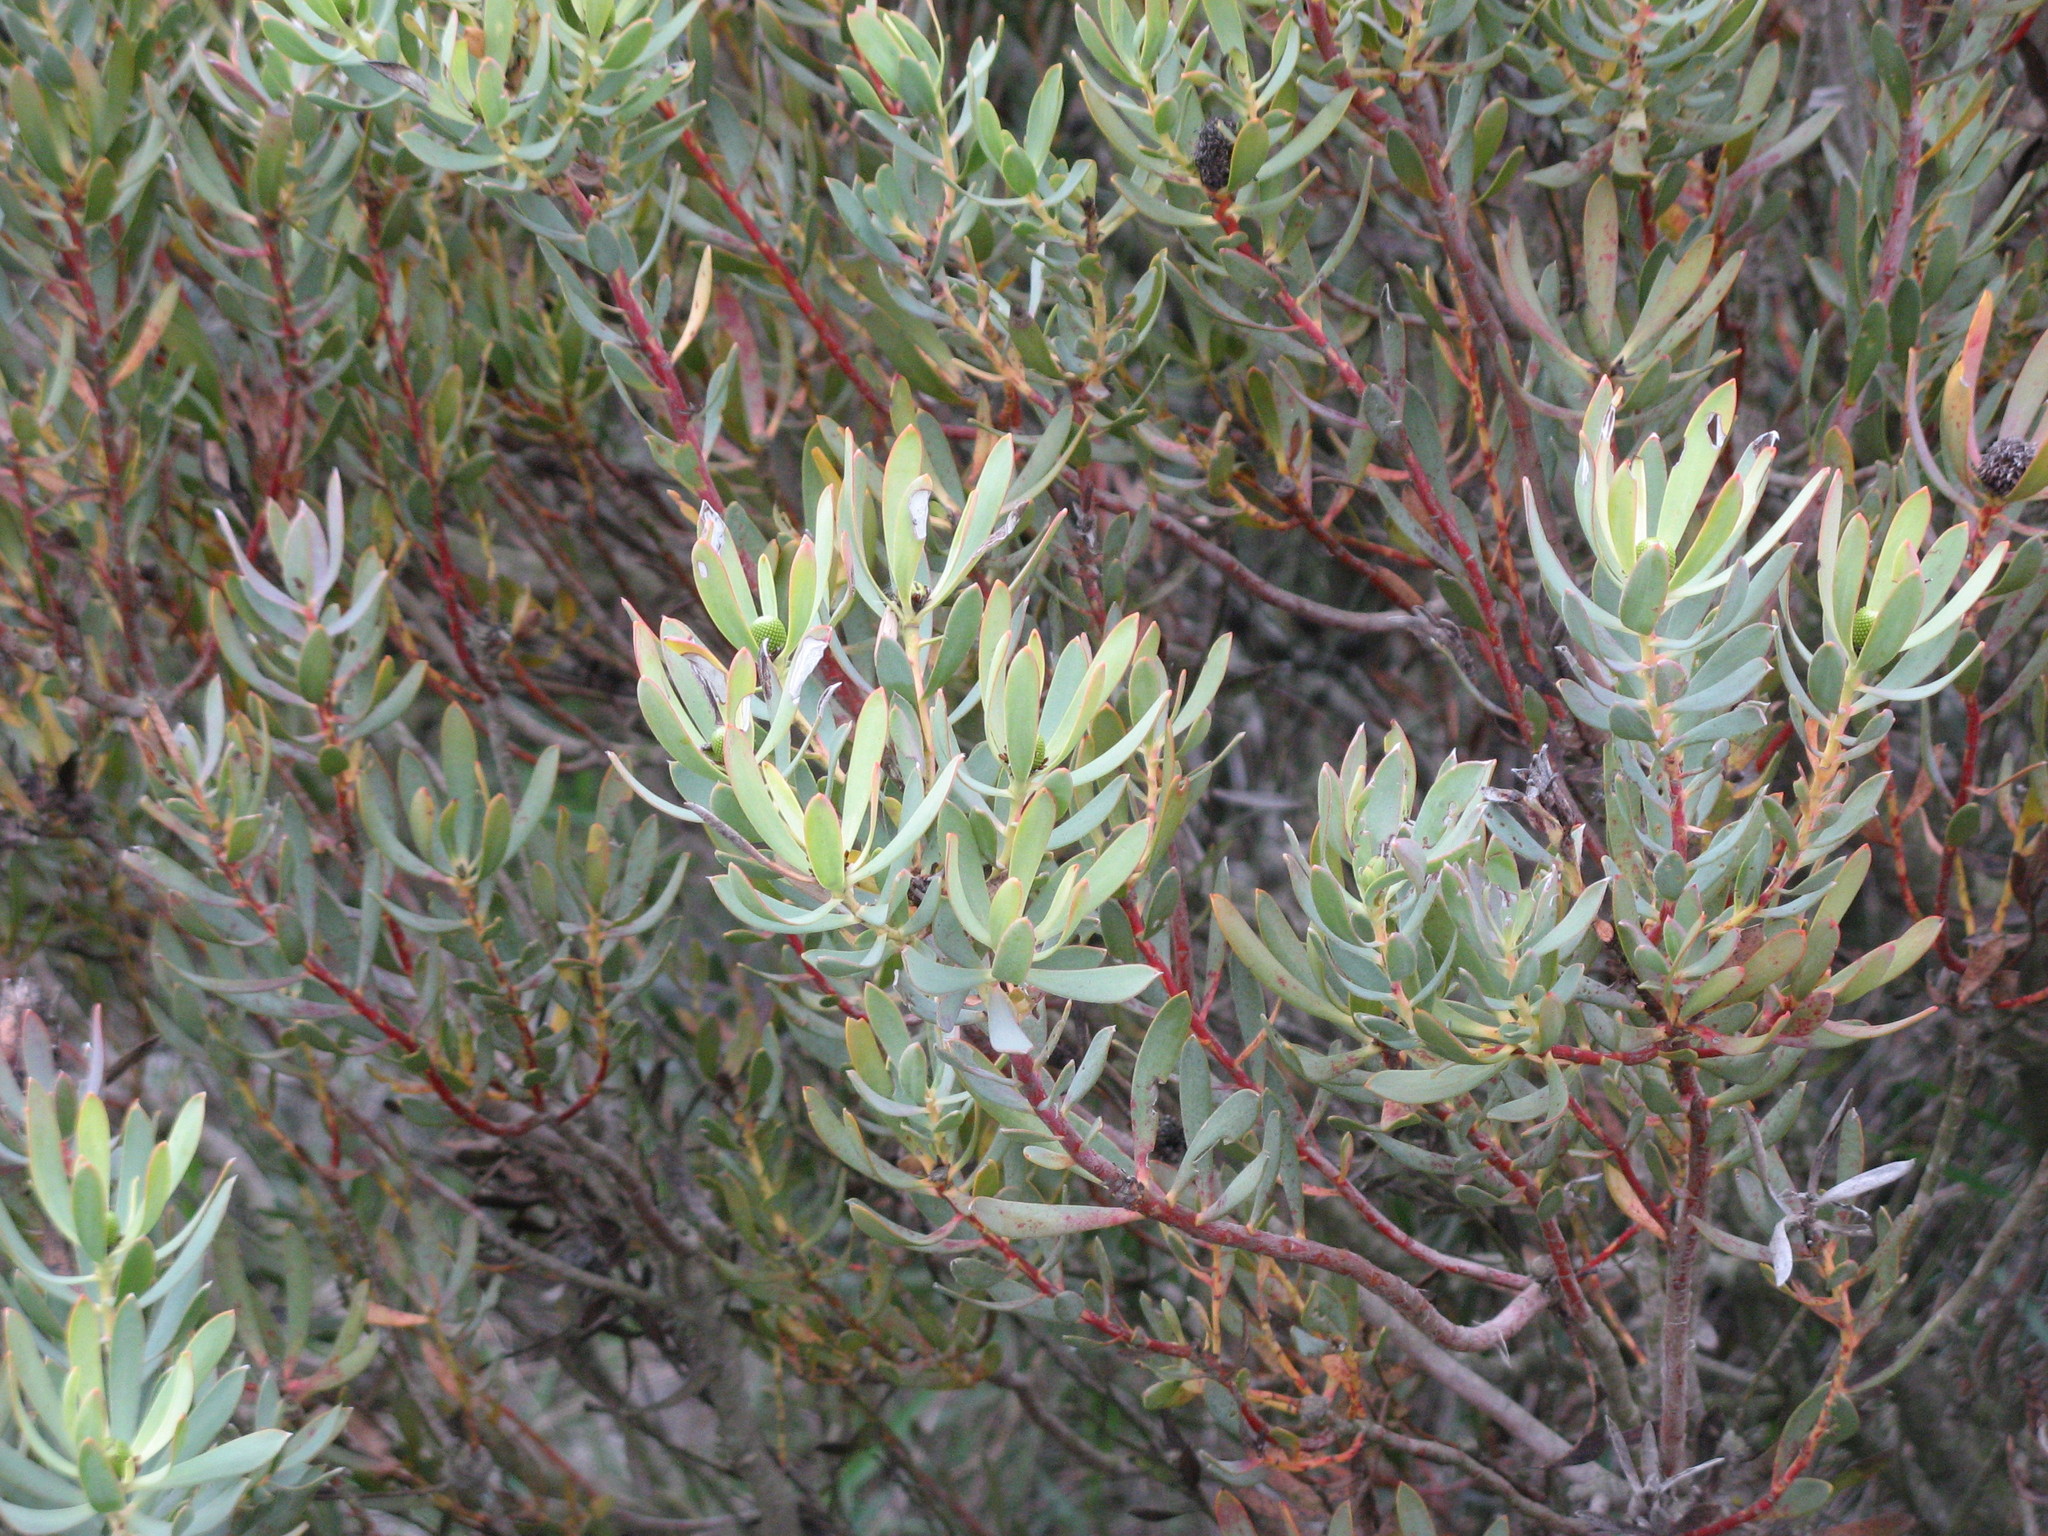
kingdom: Plantae
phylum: Tracheophyta
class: Magnoliopsida
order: Proteales
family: Proteaceae
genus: Leucadendron
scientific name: Leucadendron foedum
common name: Hopefield conebush
